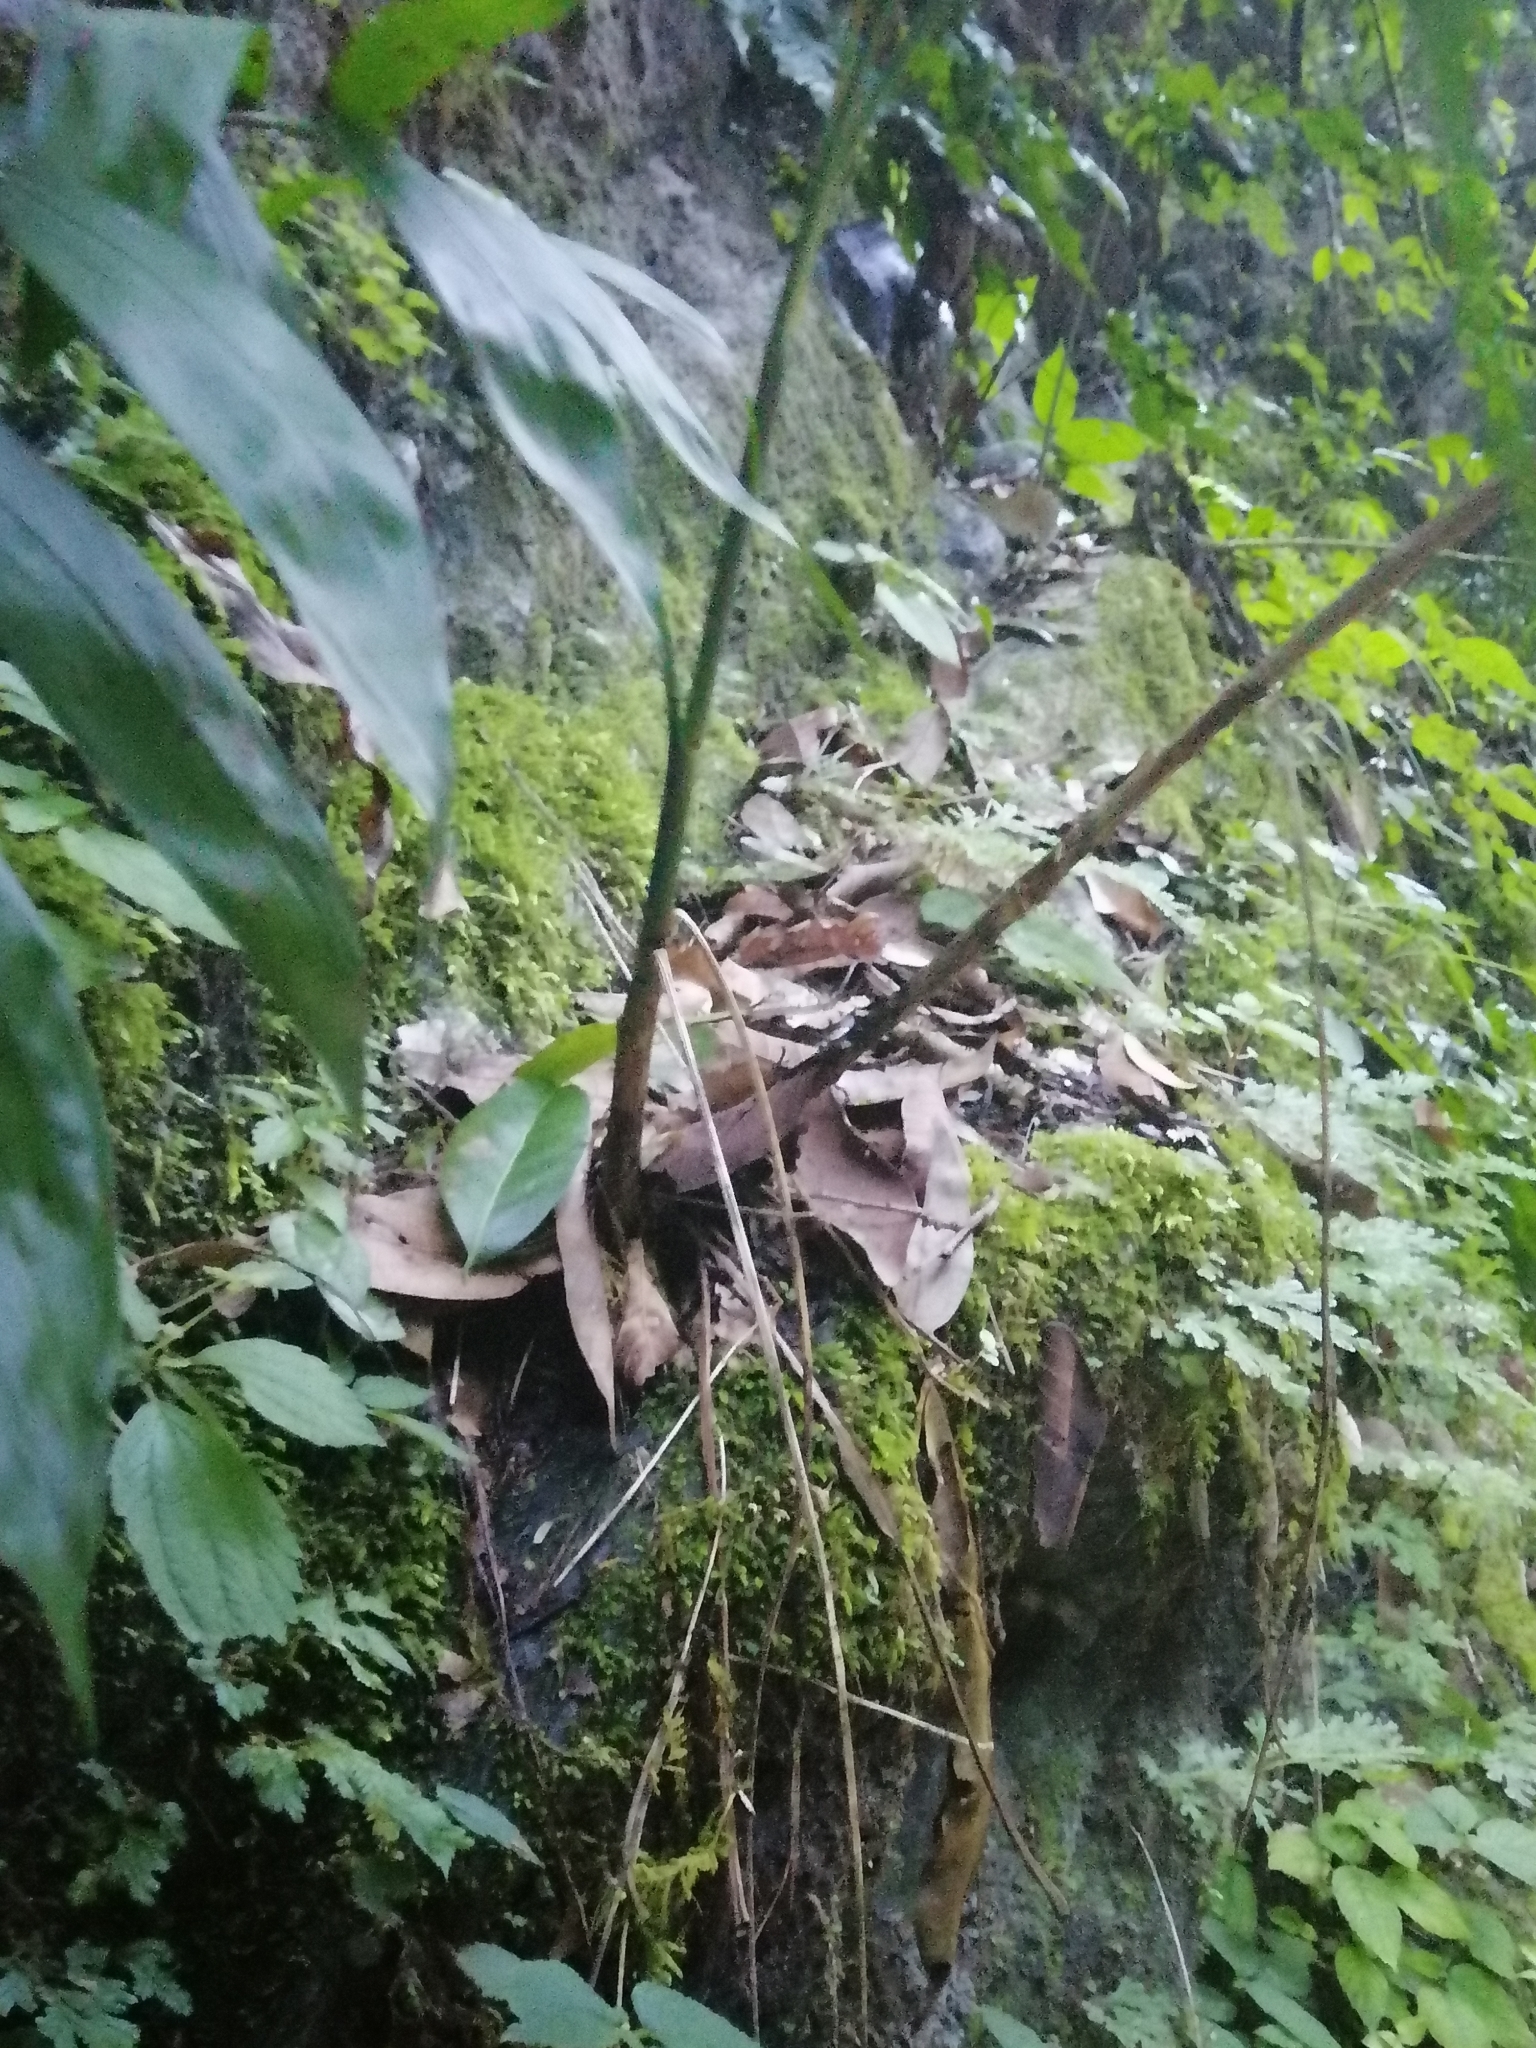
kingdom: Plantae
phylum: Tracheophyta
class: Liliopsida
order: Arecales
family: Arecaceae
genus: Chamaedorea
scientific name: Chamaedorea microspadix
